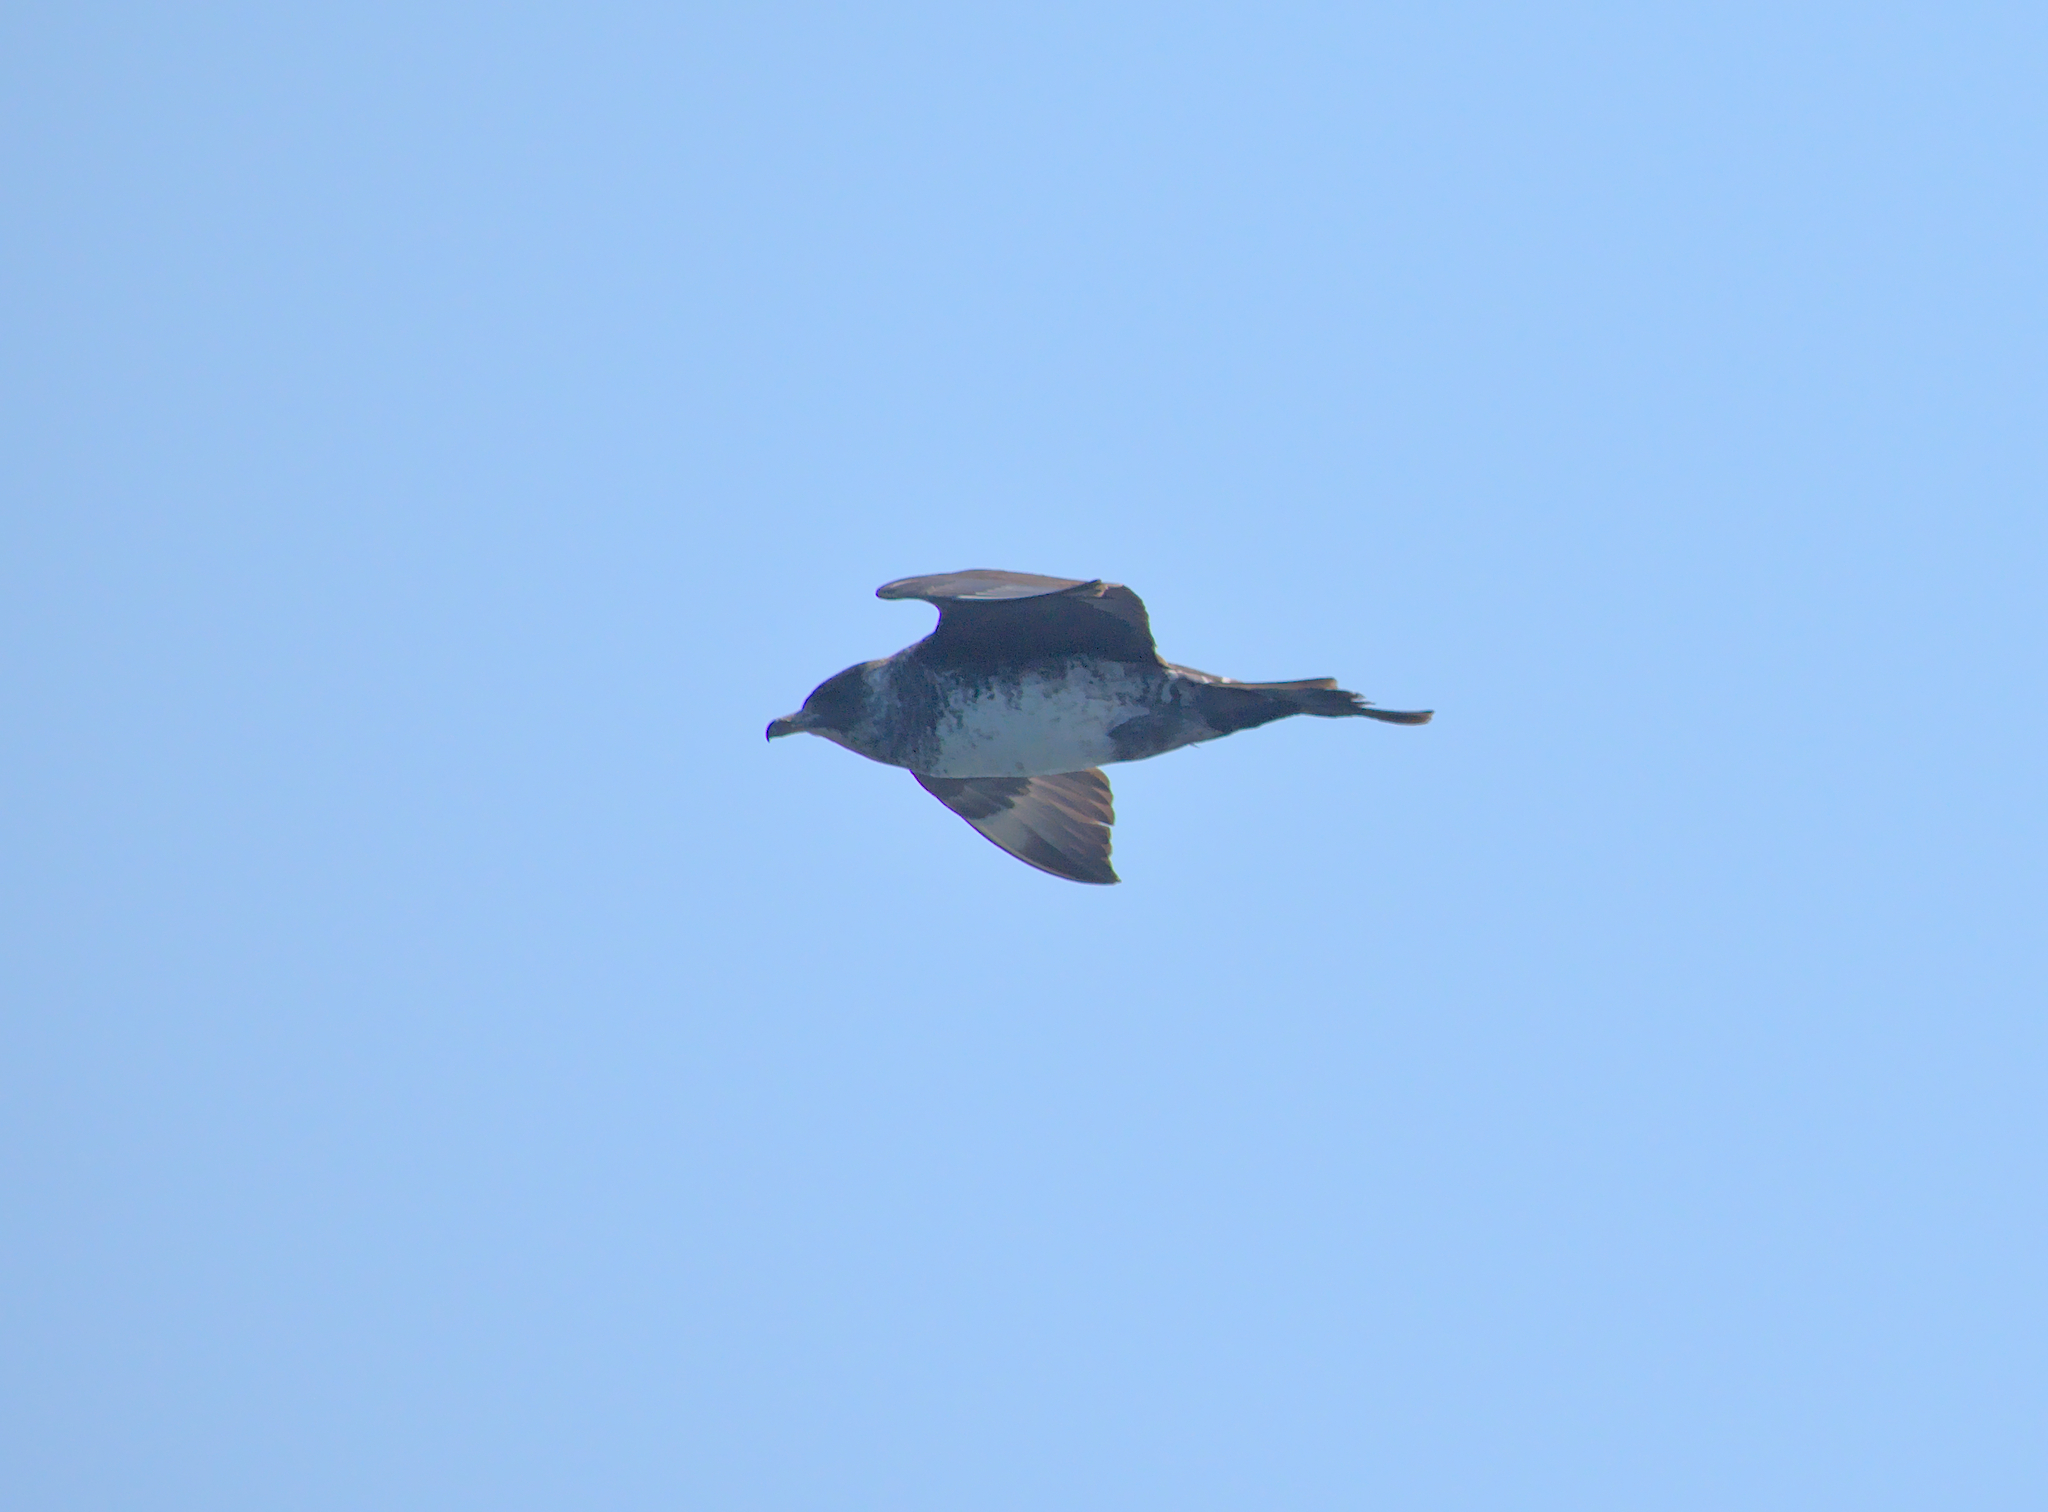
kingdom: Animalia
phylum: Chordata
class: Aves
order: Charadriiformes
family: Stercorariidae
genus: Stercorarius
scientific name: Stercorarius pomarinus
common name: Pomarine jaeger
